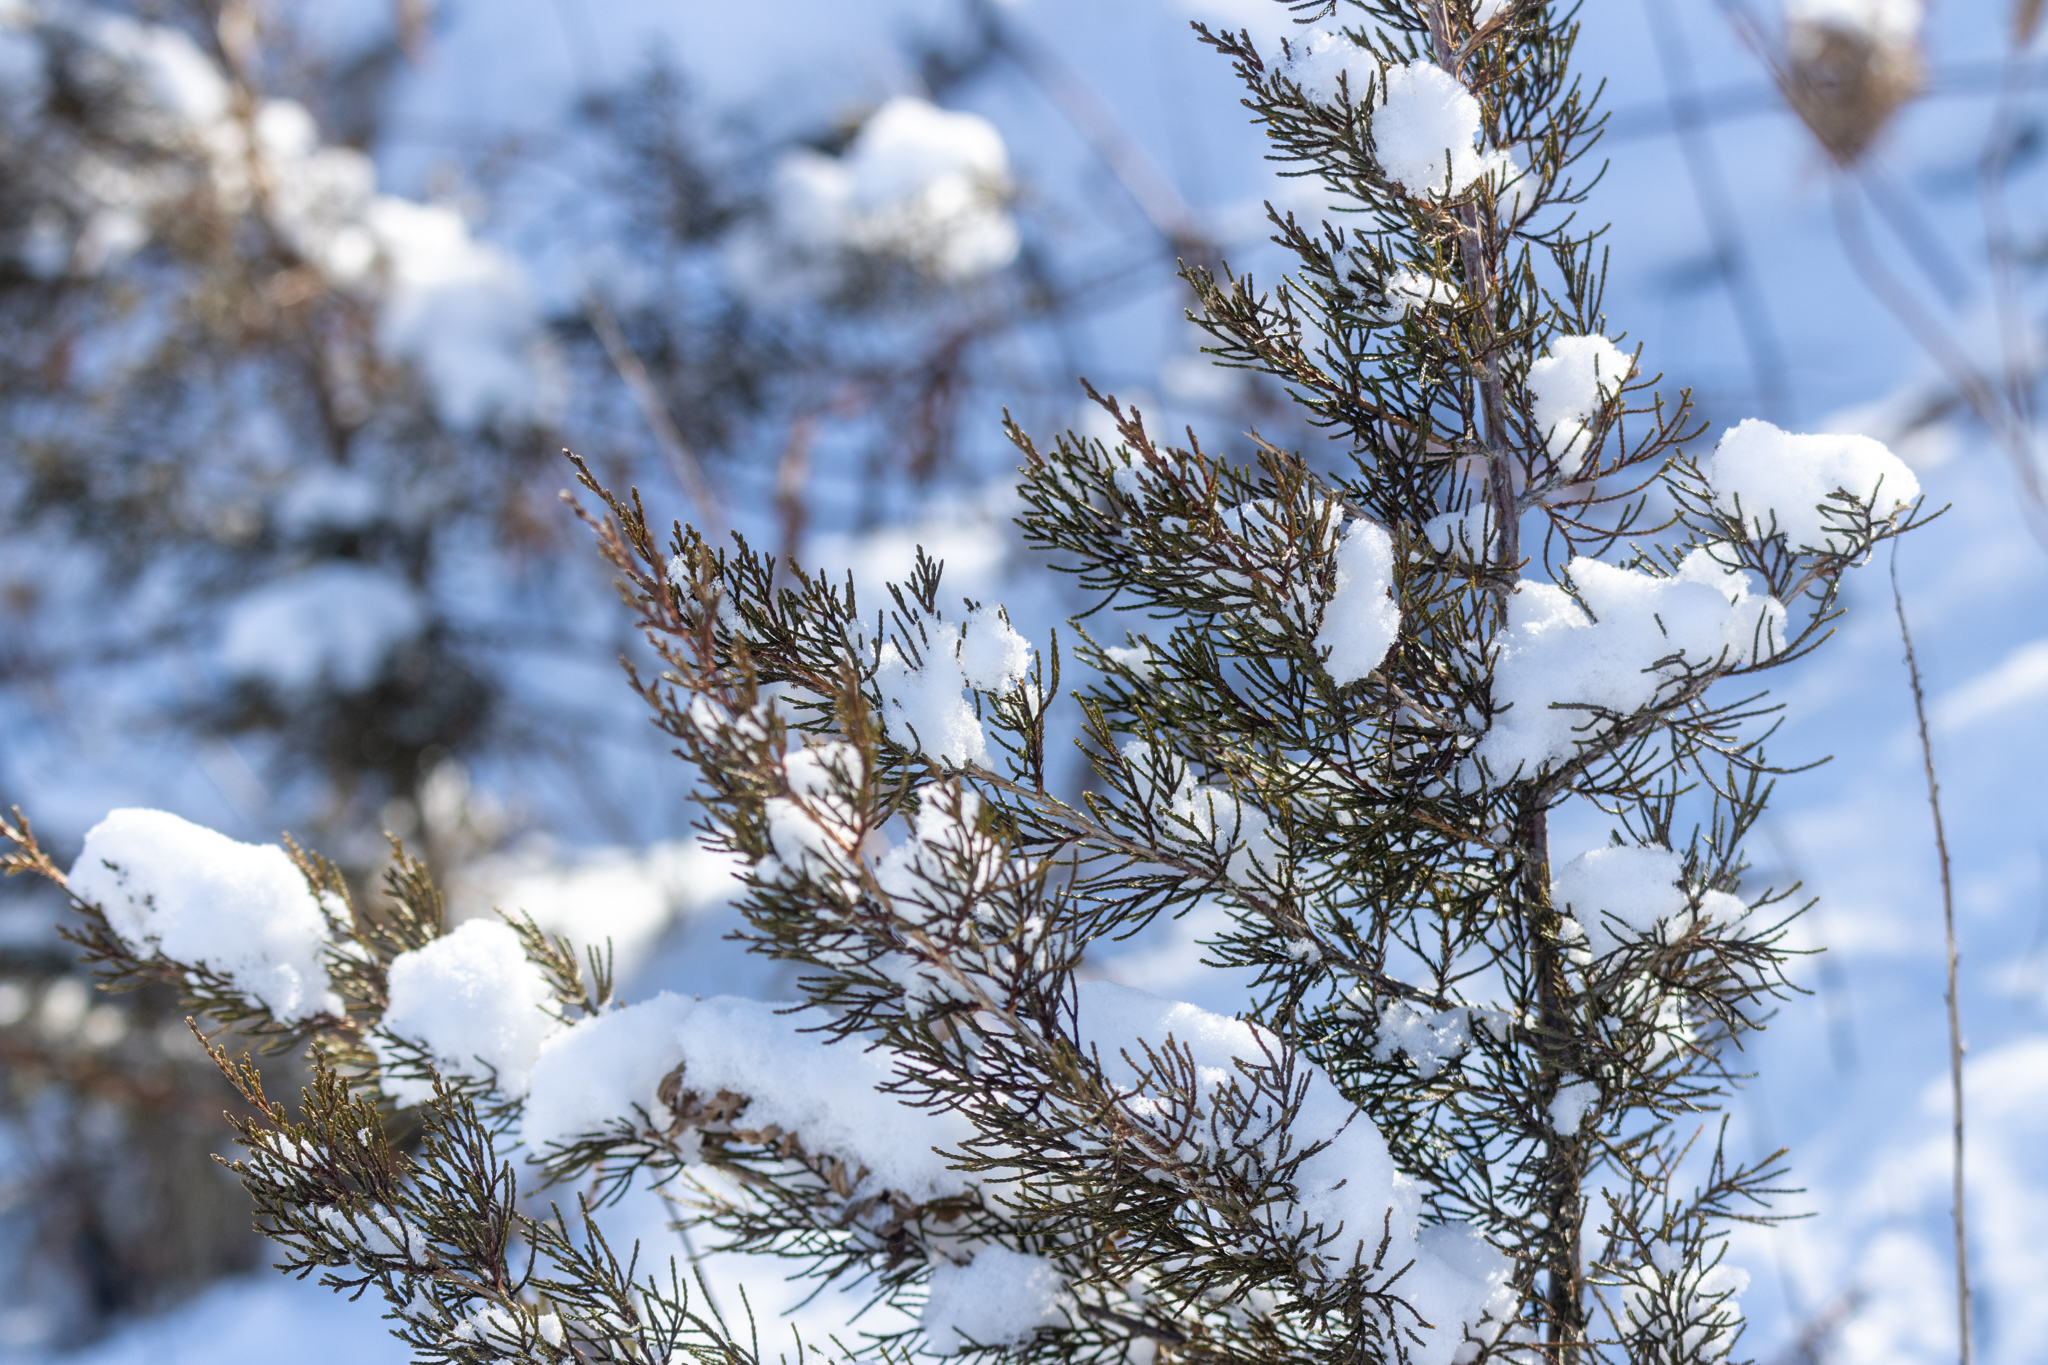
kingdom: Plantae
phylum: Tracheophyta
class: Pinopsida
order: Pinales
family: Cupressaceae
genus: Juniperus
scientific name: Juniperus virginiana
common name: Red juniper
